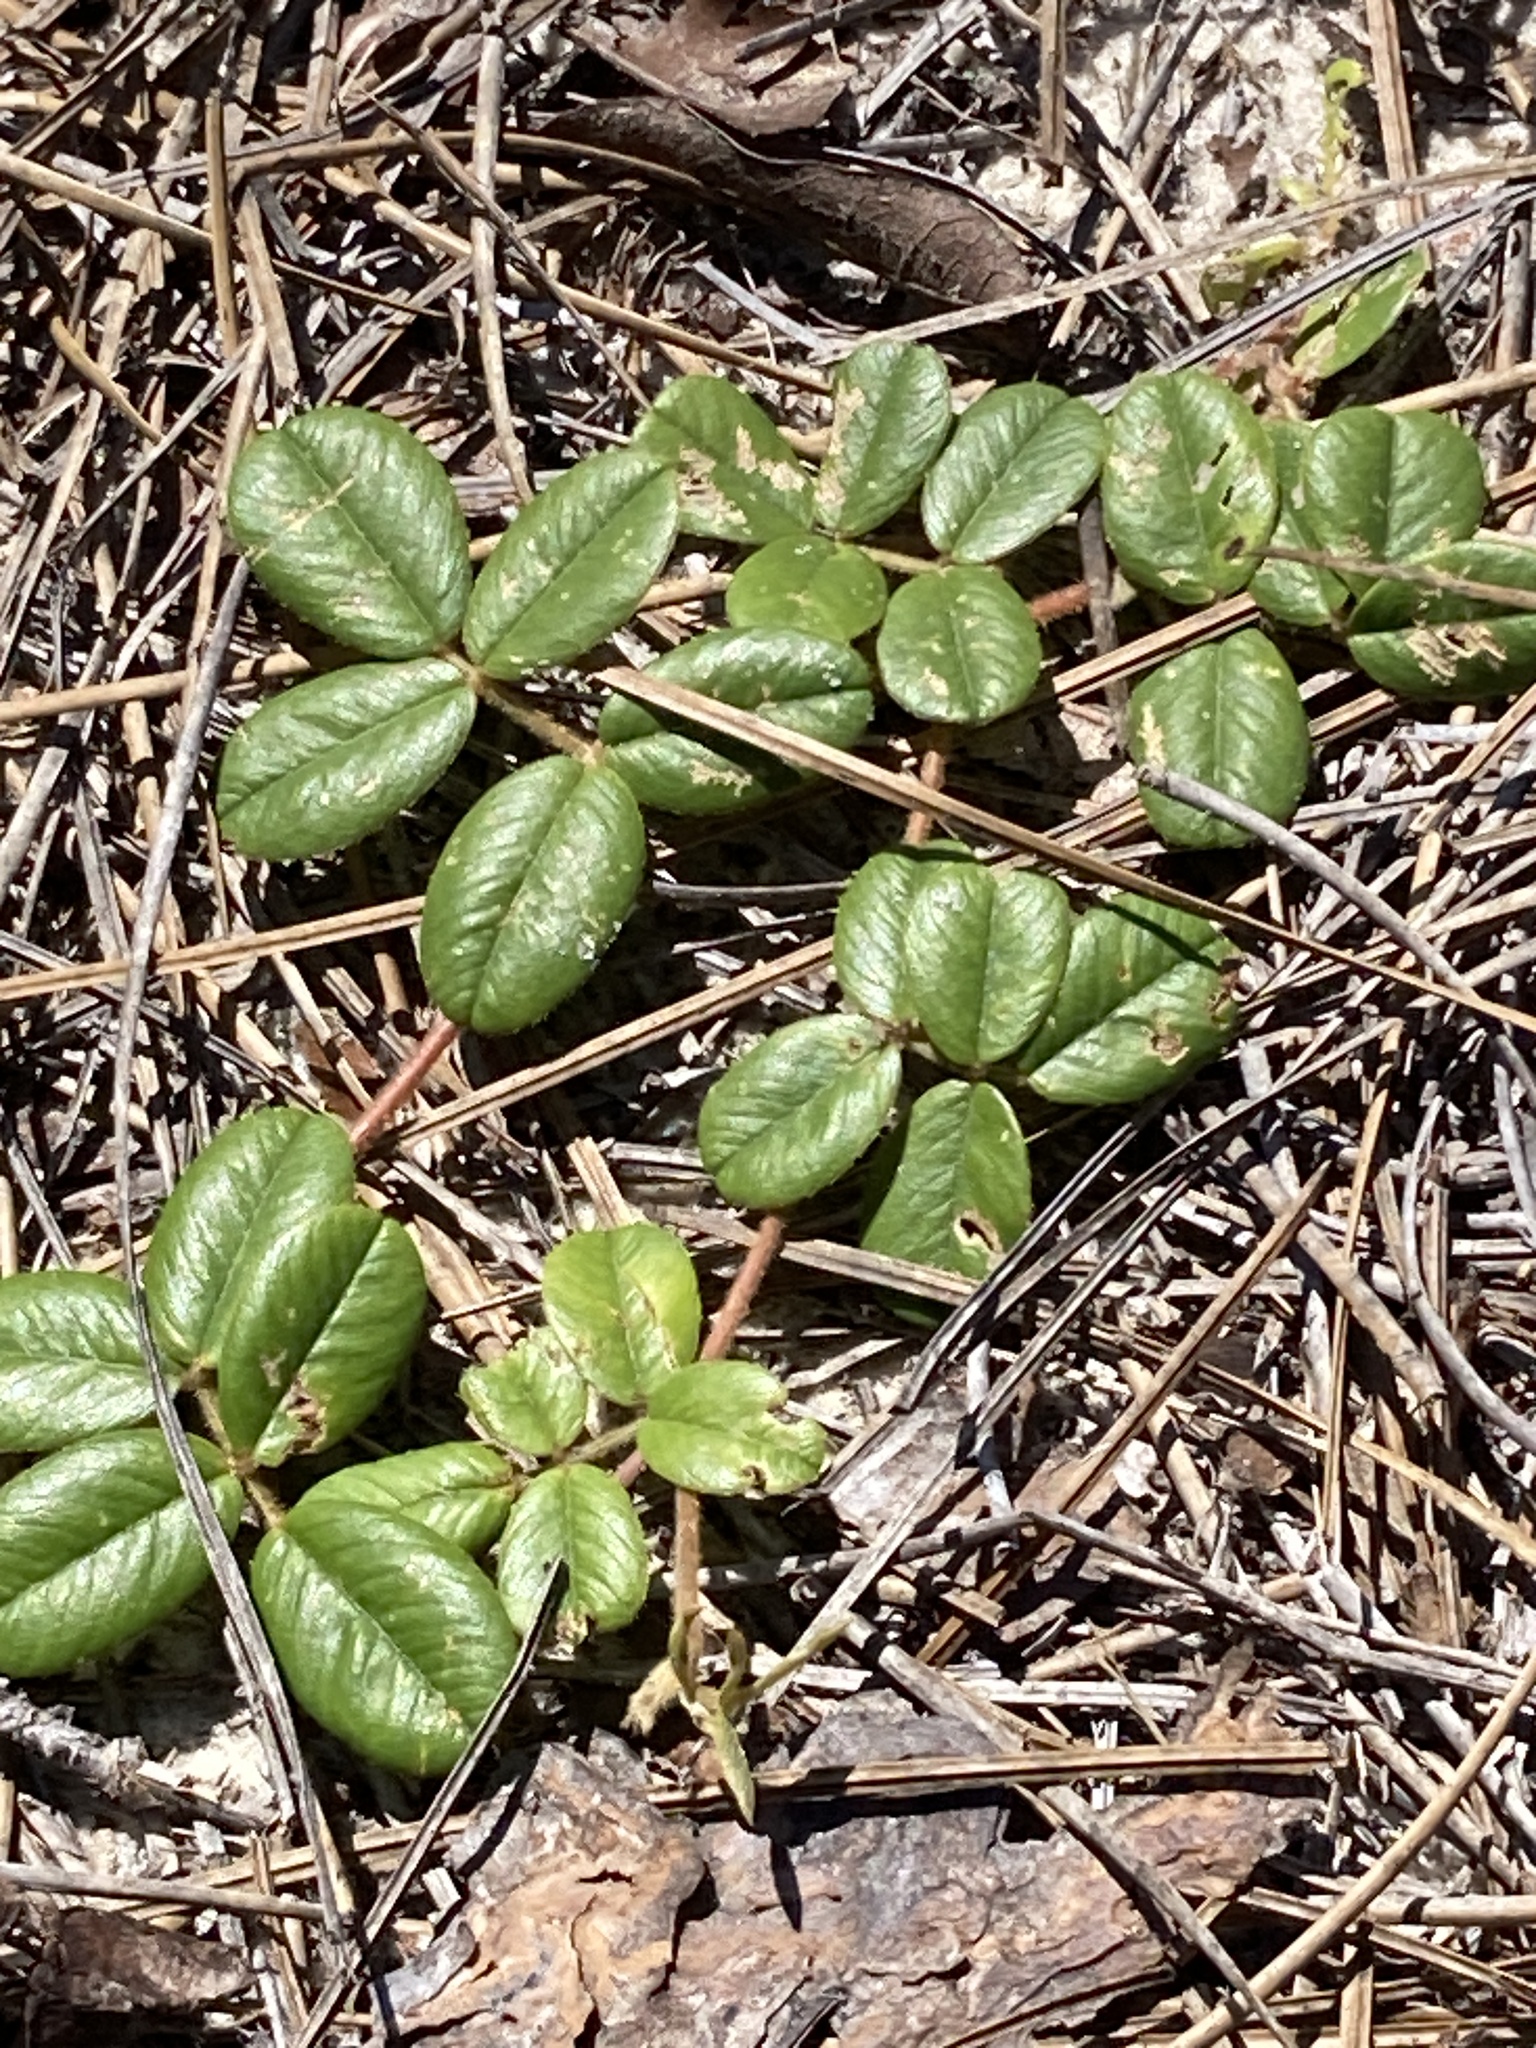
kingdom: Plantae
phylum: Tracheophyta
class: Magnoliopsida
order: Fabales
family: Fabaceae
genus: Tephrosia
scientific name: Tephrosia chrysophylla
